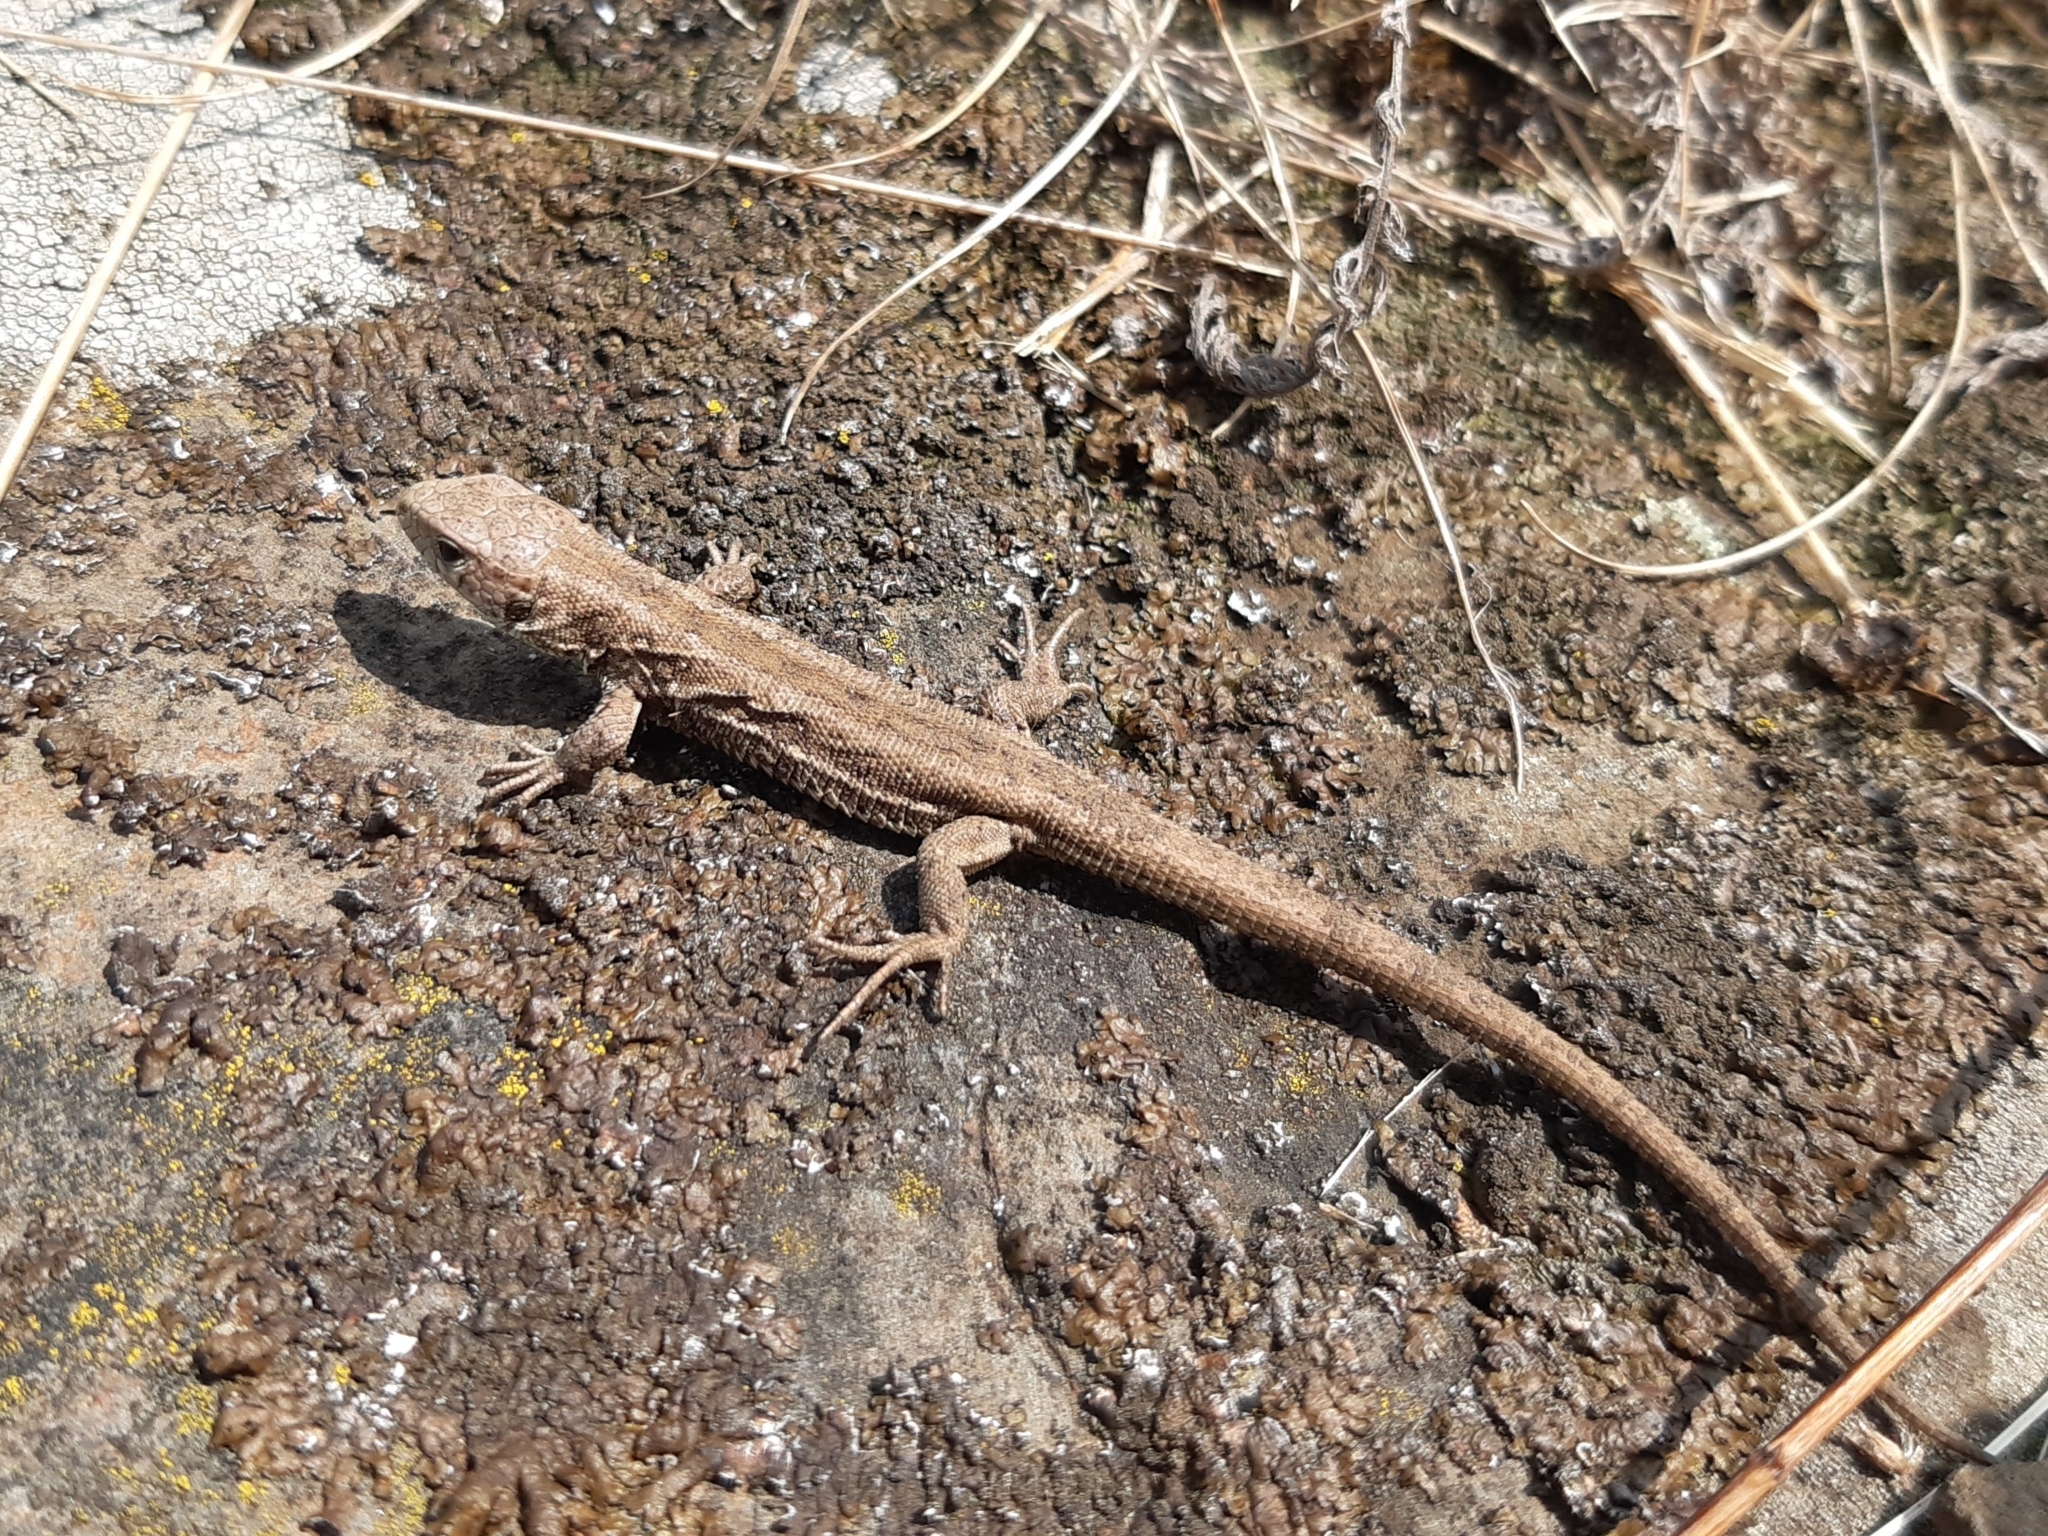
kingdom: Animalia
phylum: Chordata
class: Squamata
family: Lacertidae
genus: Lacerta
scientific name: Lacerta agilis
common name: Sand lizard
